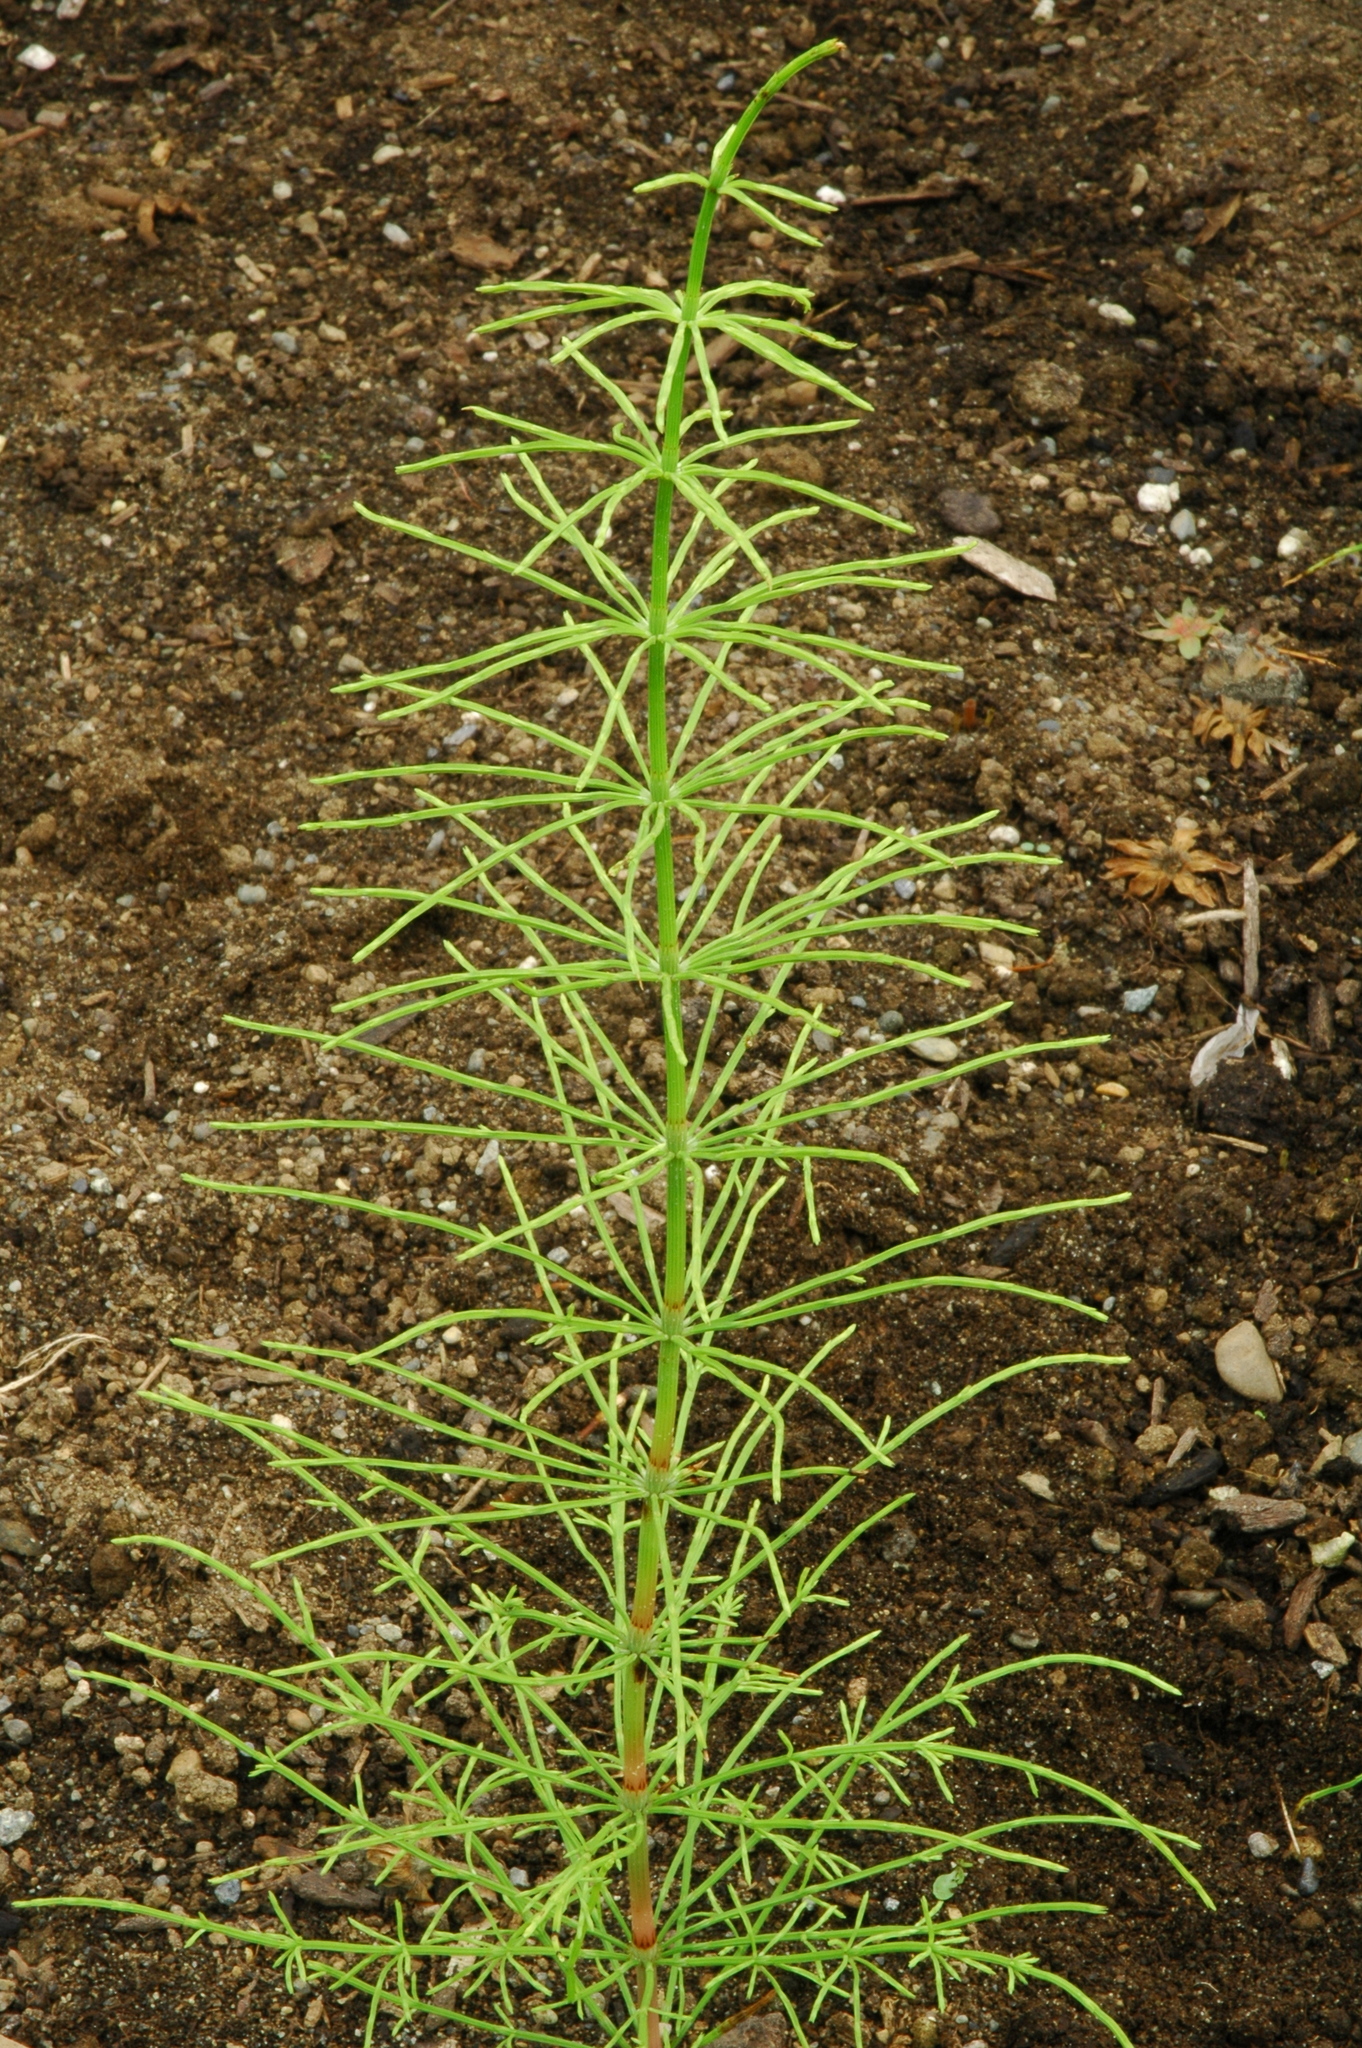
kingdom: Plantae
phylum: Tracheophyta
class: Polypodiopsida
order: Equisetales
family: Equisetaceae
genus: Equisetum
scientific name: Equisetum arvense
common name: Field horsetail
